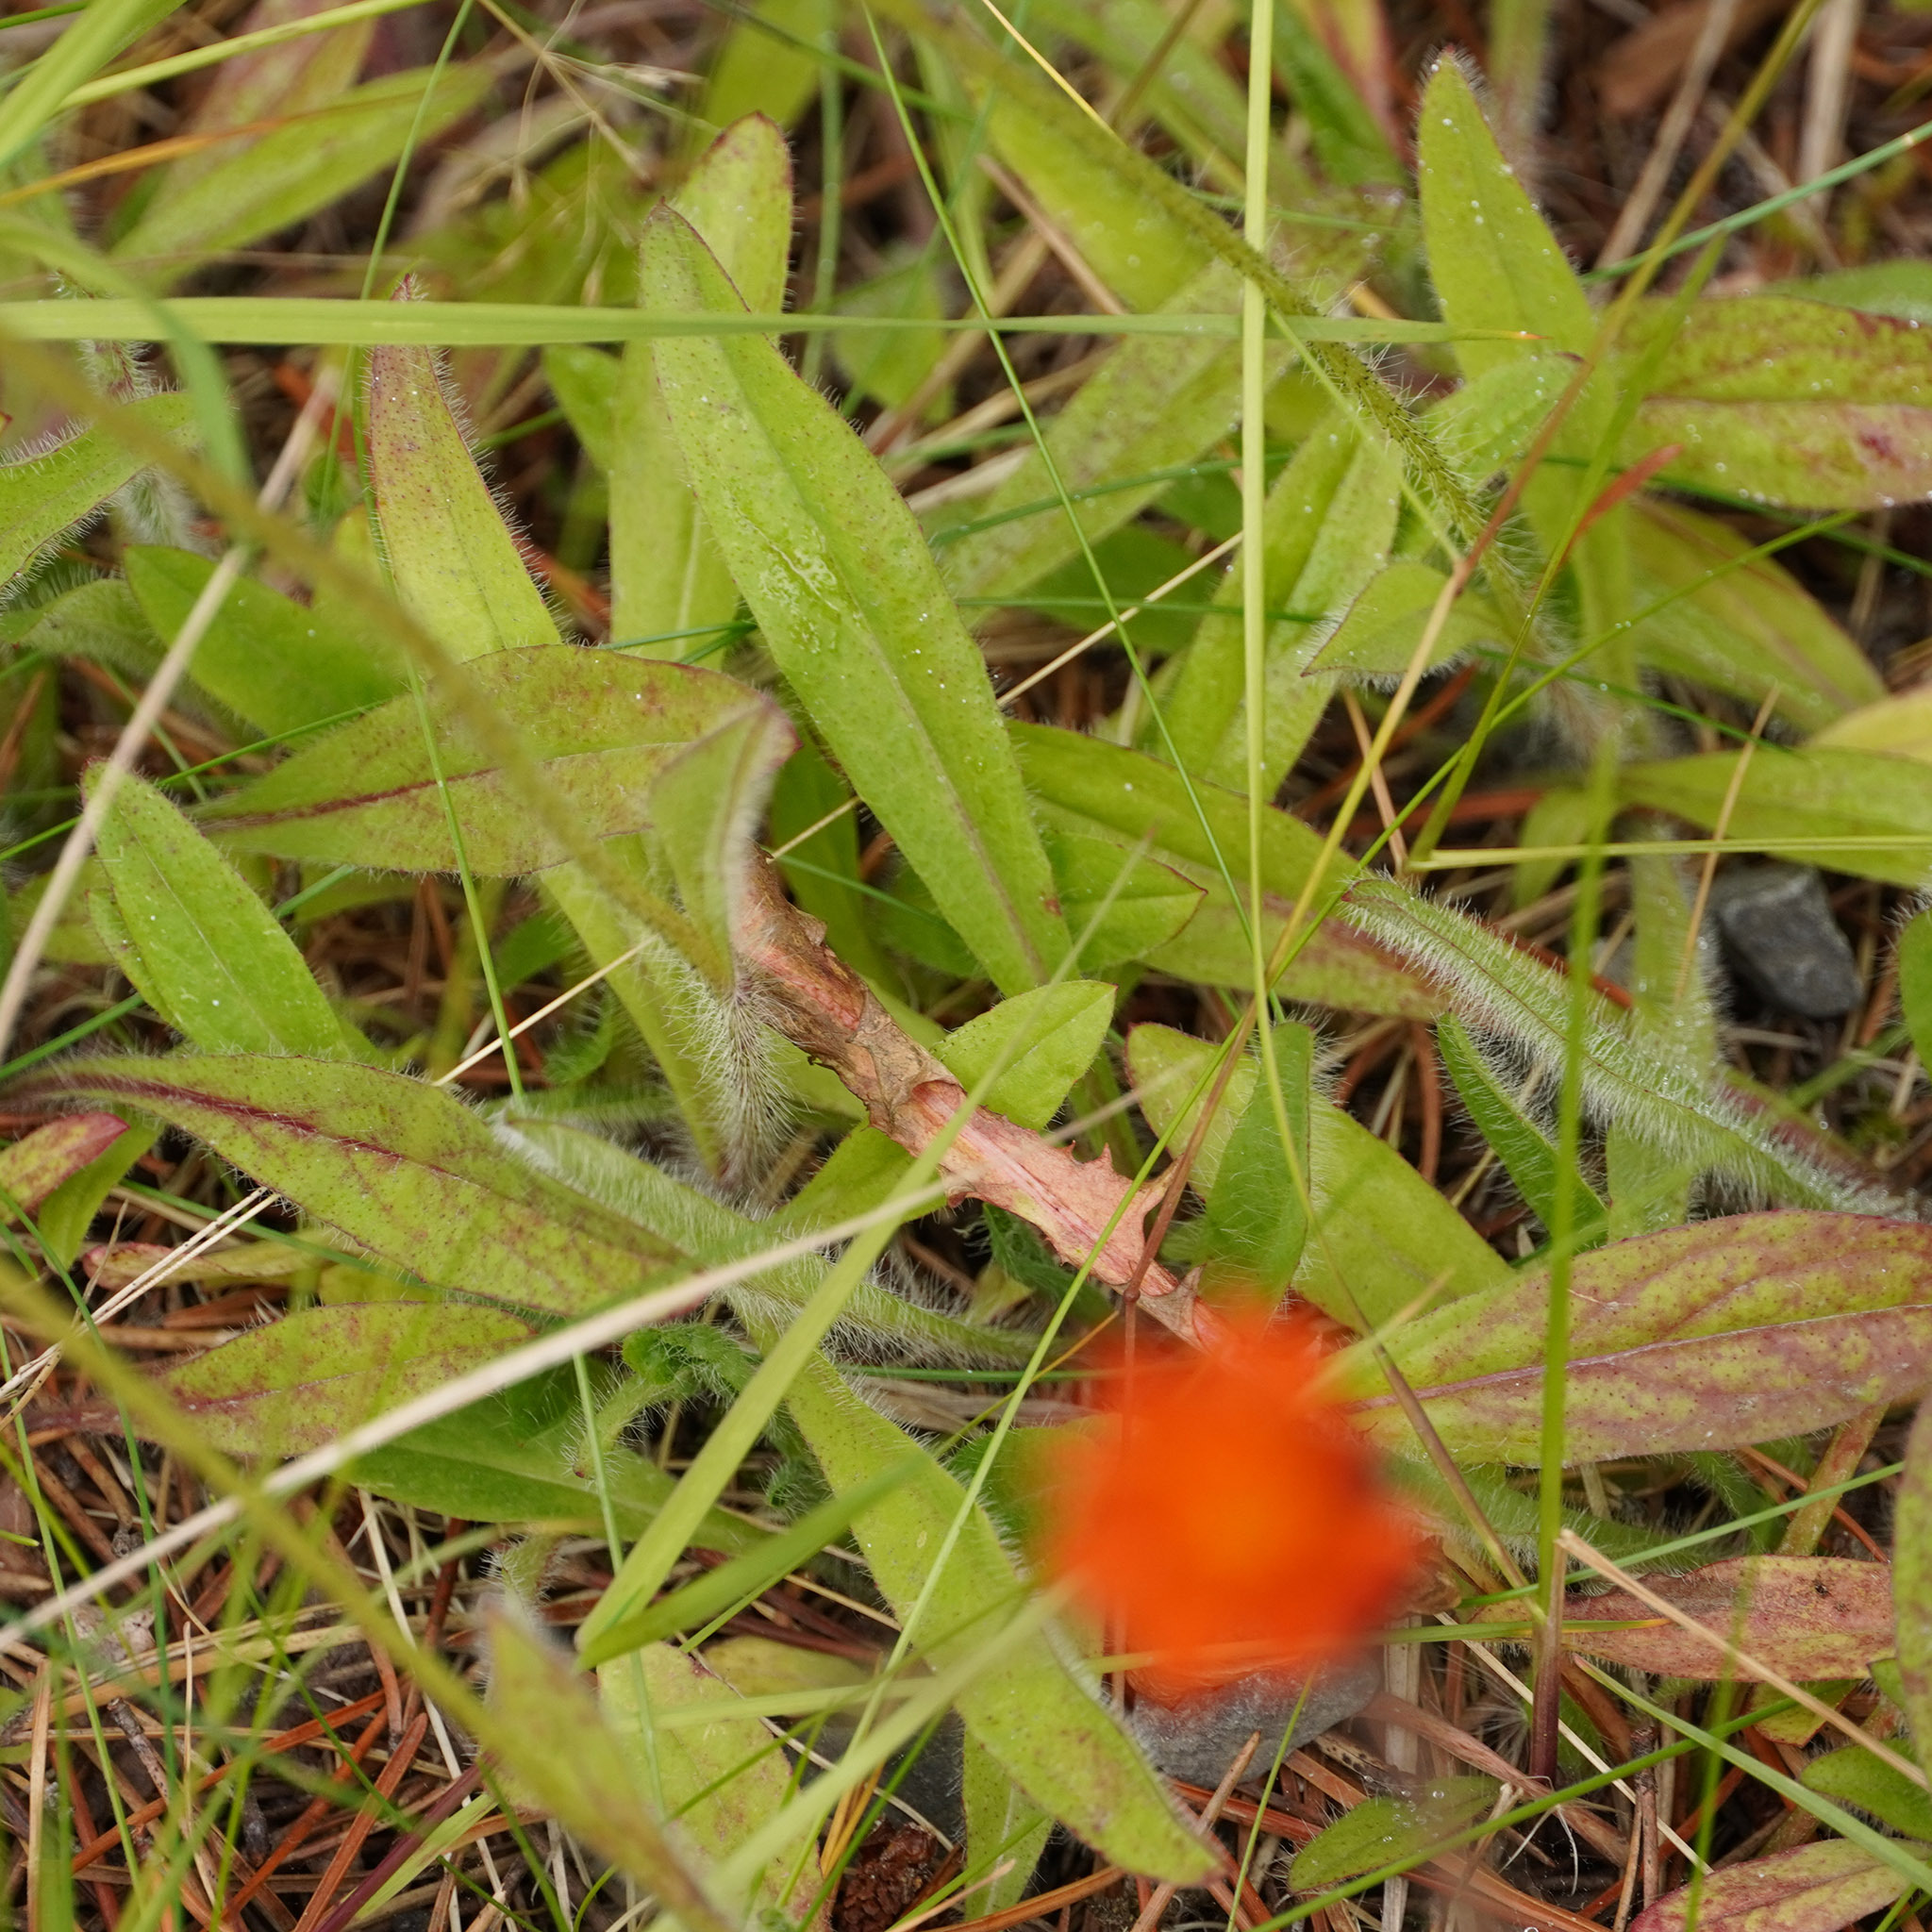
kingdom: Plantae
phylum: Tracheophyta
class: Magnoliopsida
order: Asterales
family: Asteraceae
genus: Pilosella
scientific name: Pilosella aurantiaca
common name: Fox-and-cubs
